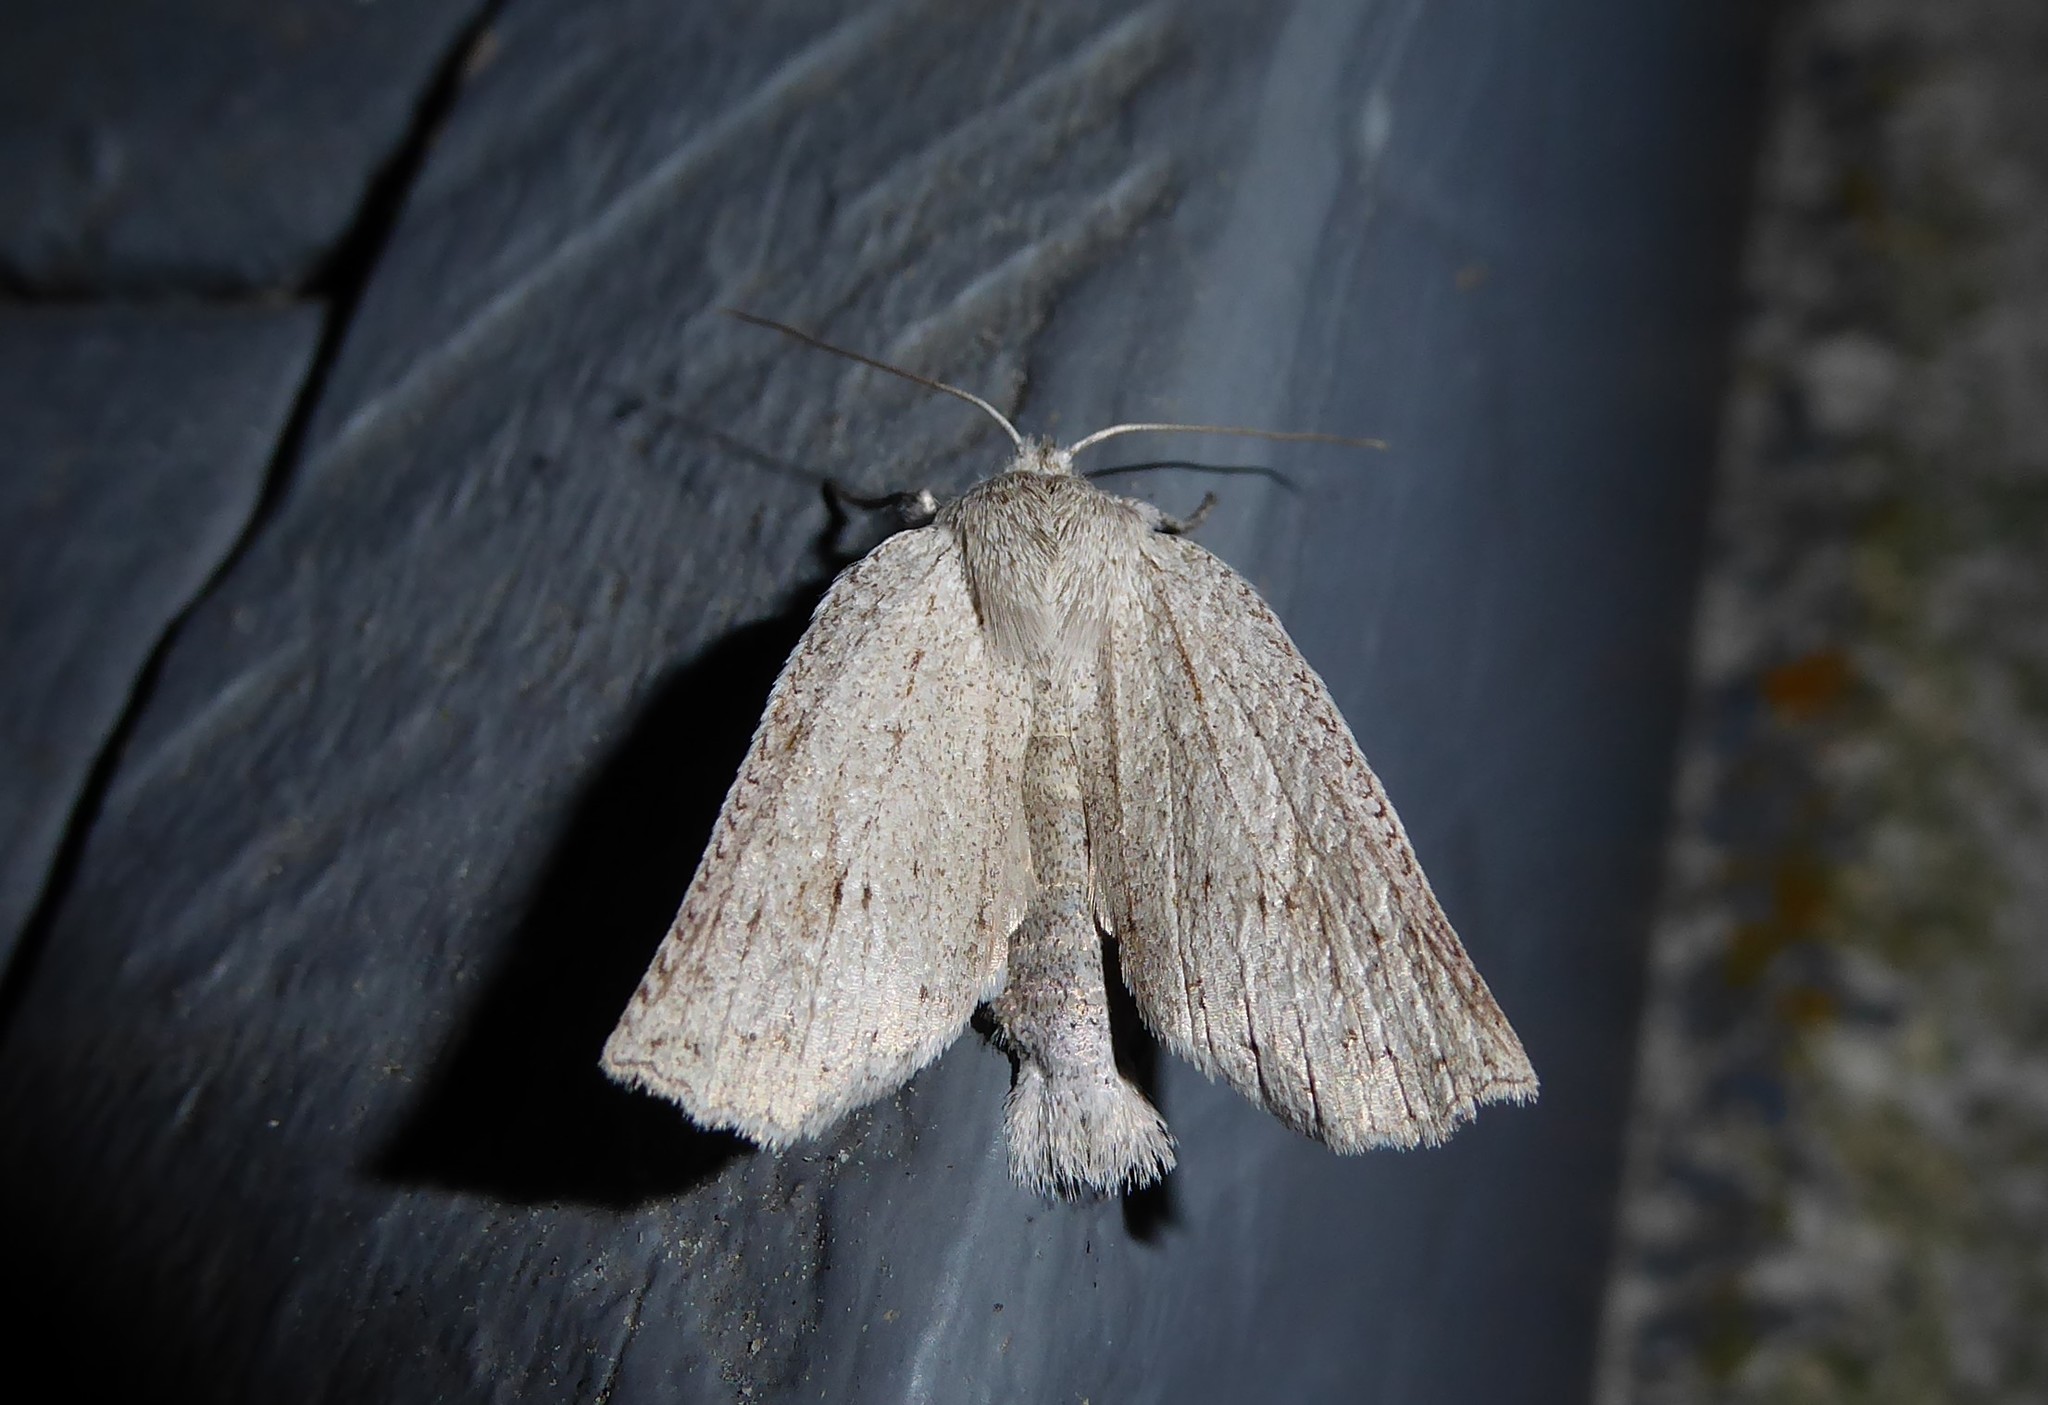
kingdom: Animalia
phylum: Arthropoda
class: Insecta
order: Lepidoptera
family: Geometridae
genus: Declana
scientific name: Declana leptomera
